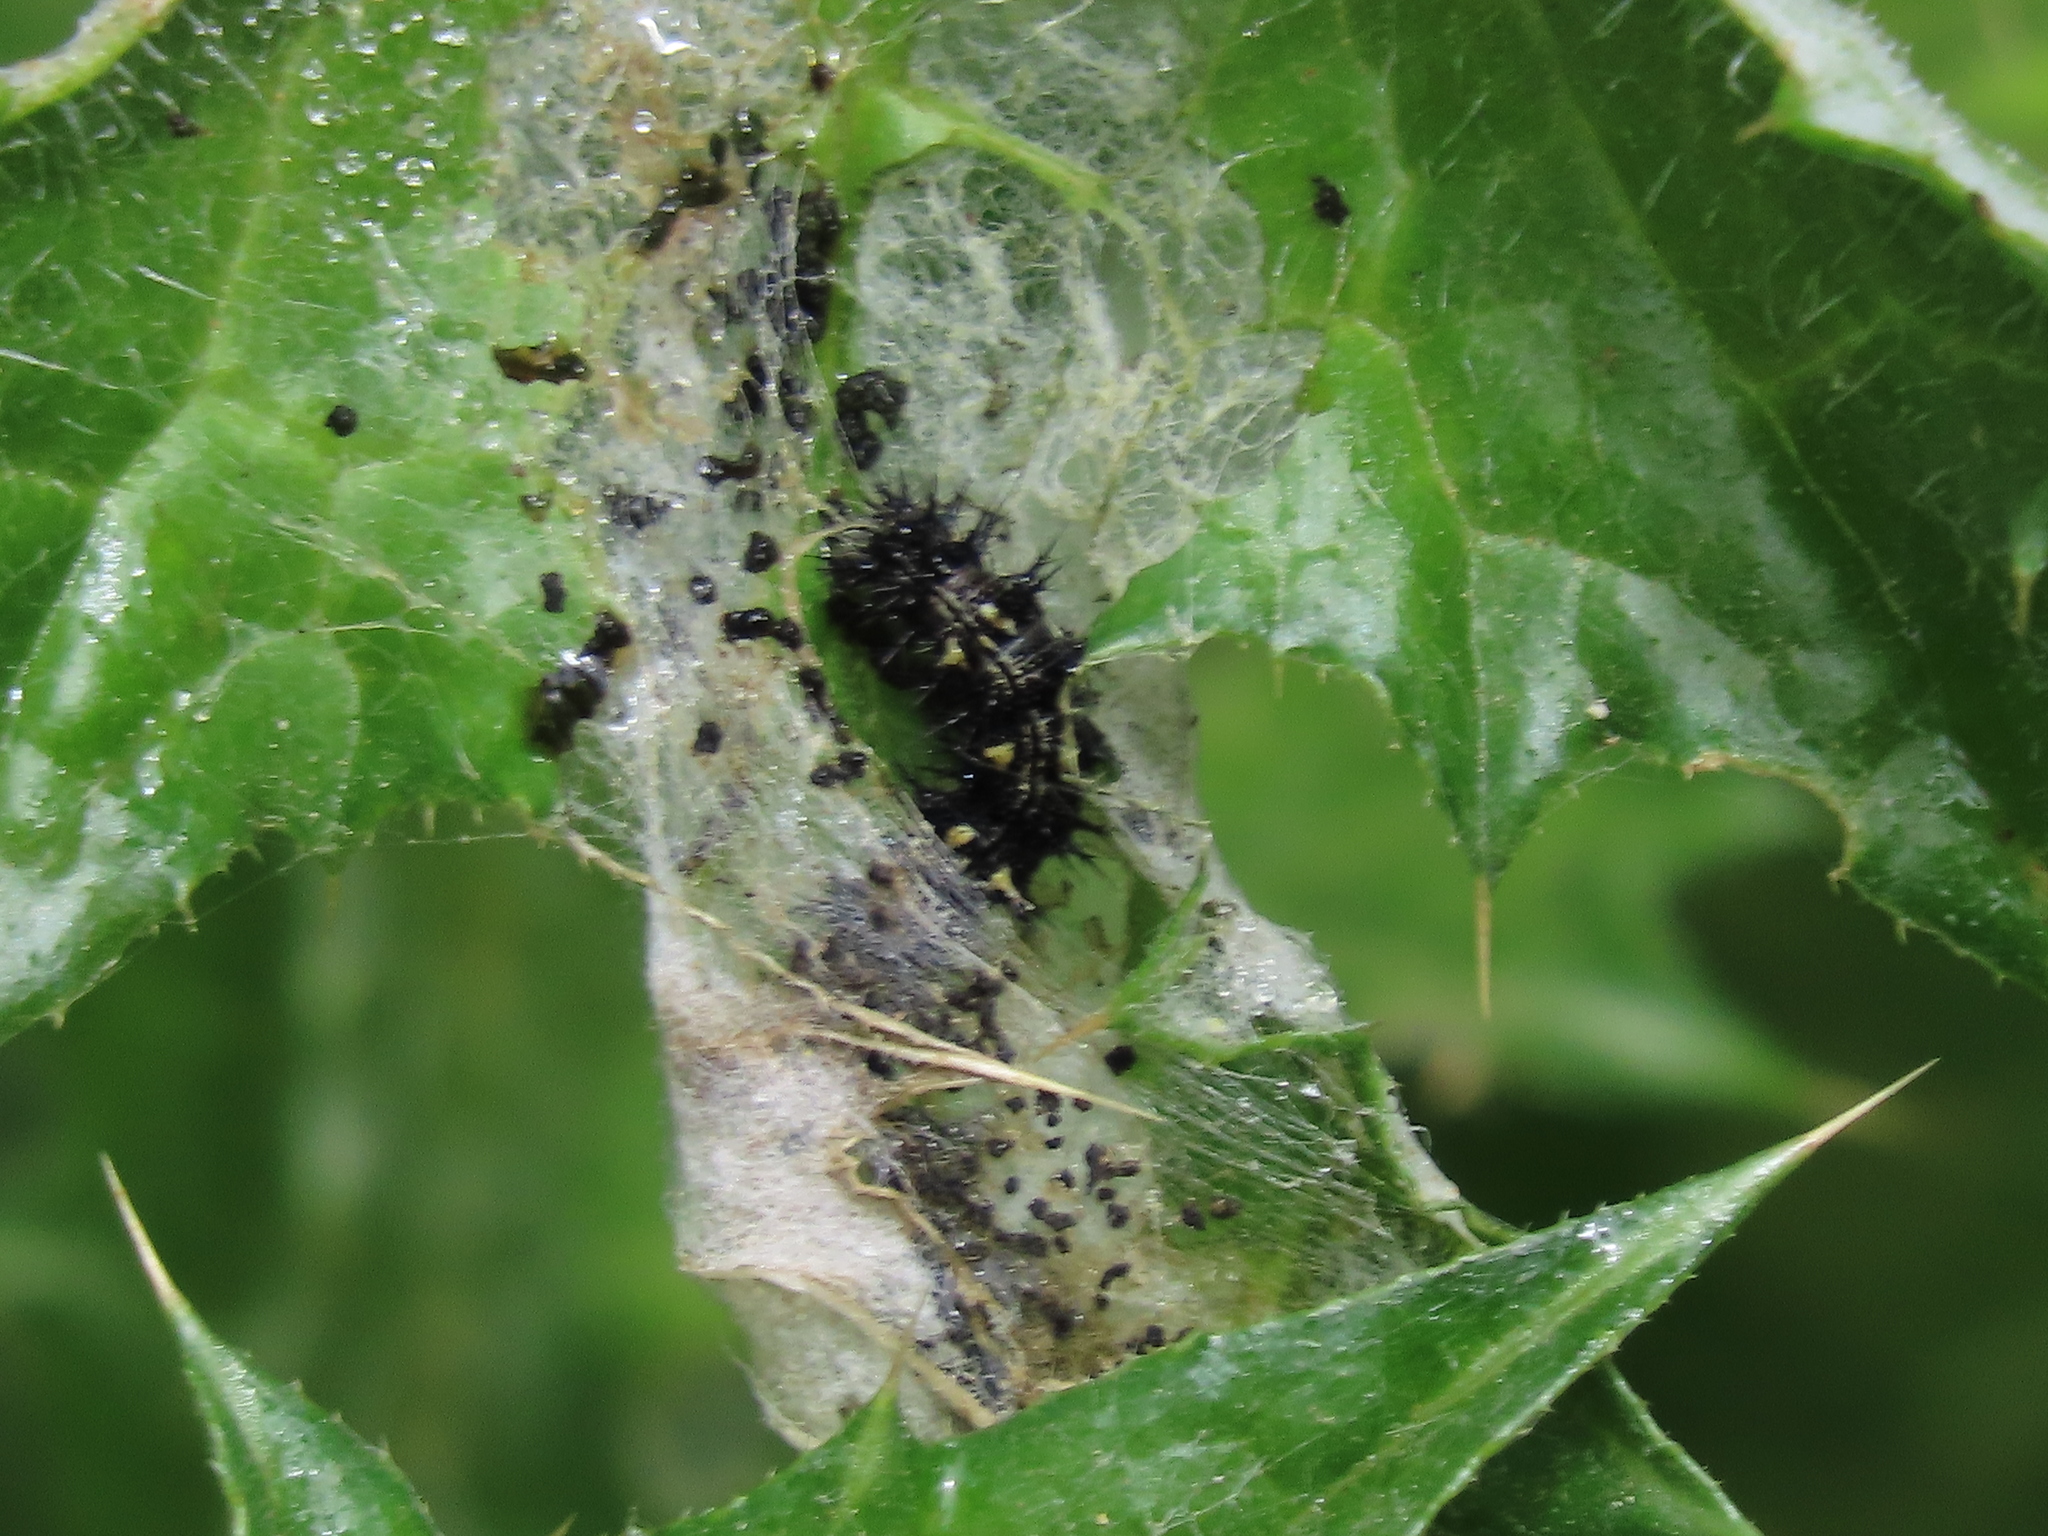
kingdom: Animalia
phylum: Arthropoda
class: Insecta
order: Lepidoptera
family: Nymphalidae
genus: Vanessa
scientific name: Vanessa cardui
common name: Painted lady
